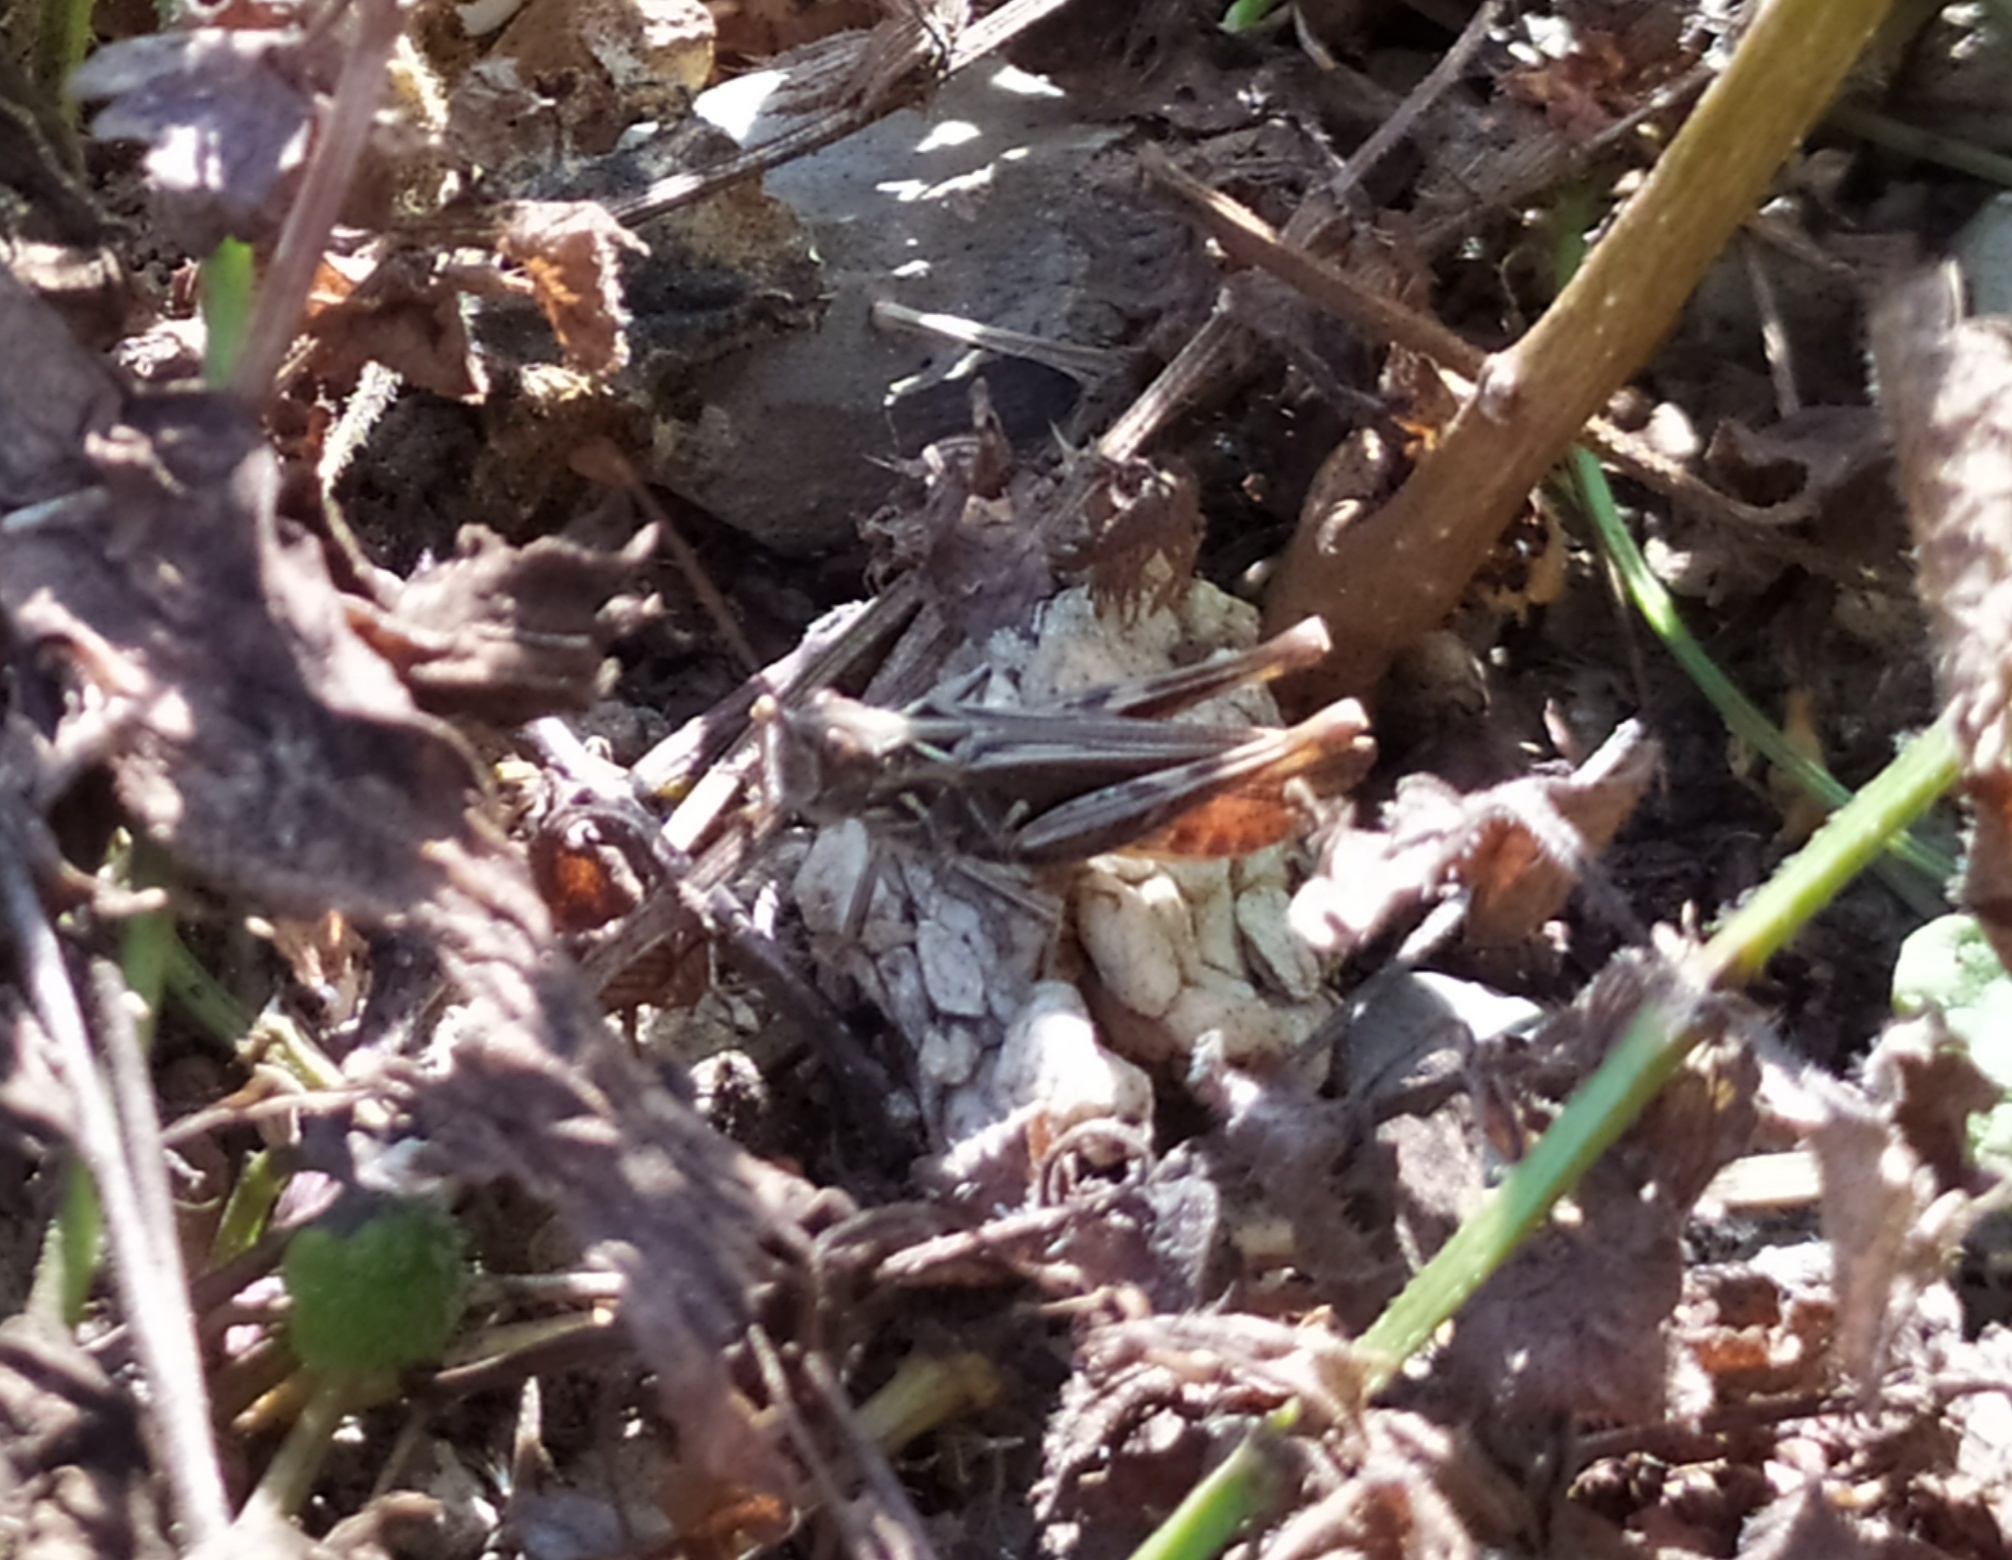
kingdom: Animalia
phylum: Arthropoda
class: Insecta
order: Orthoptera
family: Acrididae
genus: Chorthippus
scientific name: Chorthippus biguttulus
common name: Bow-winged grasshopper
